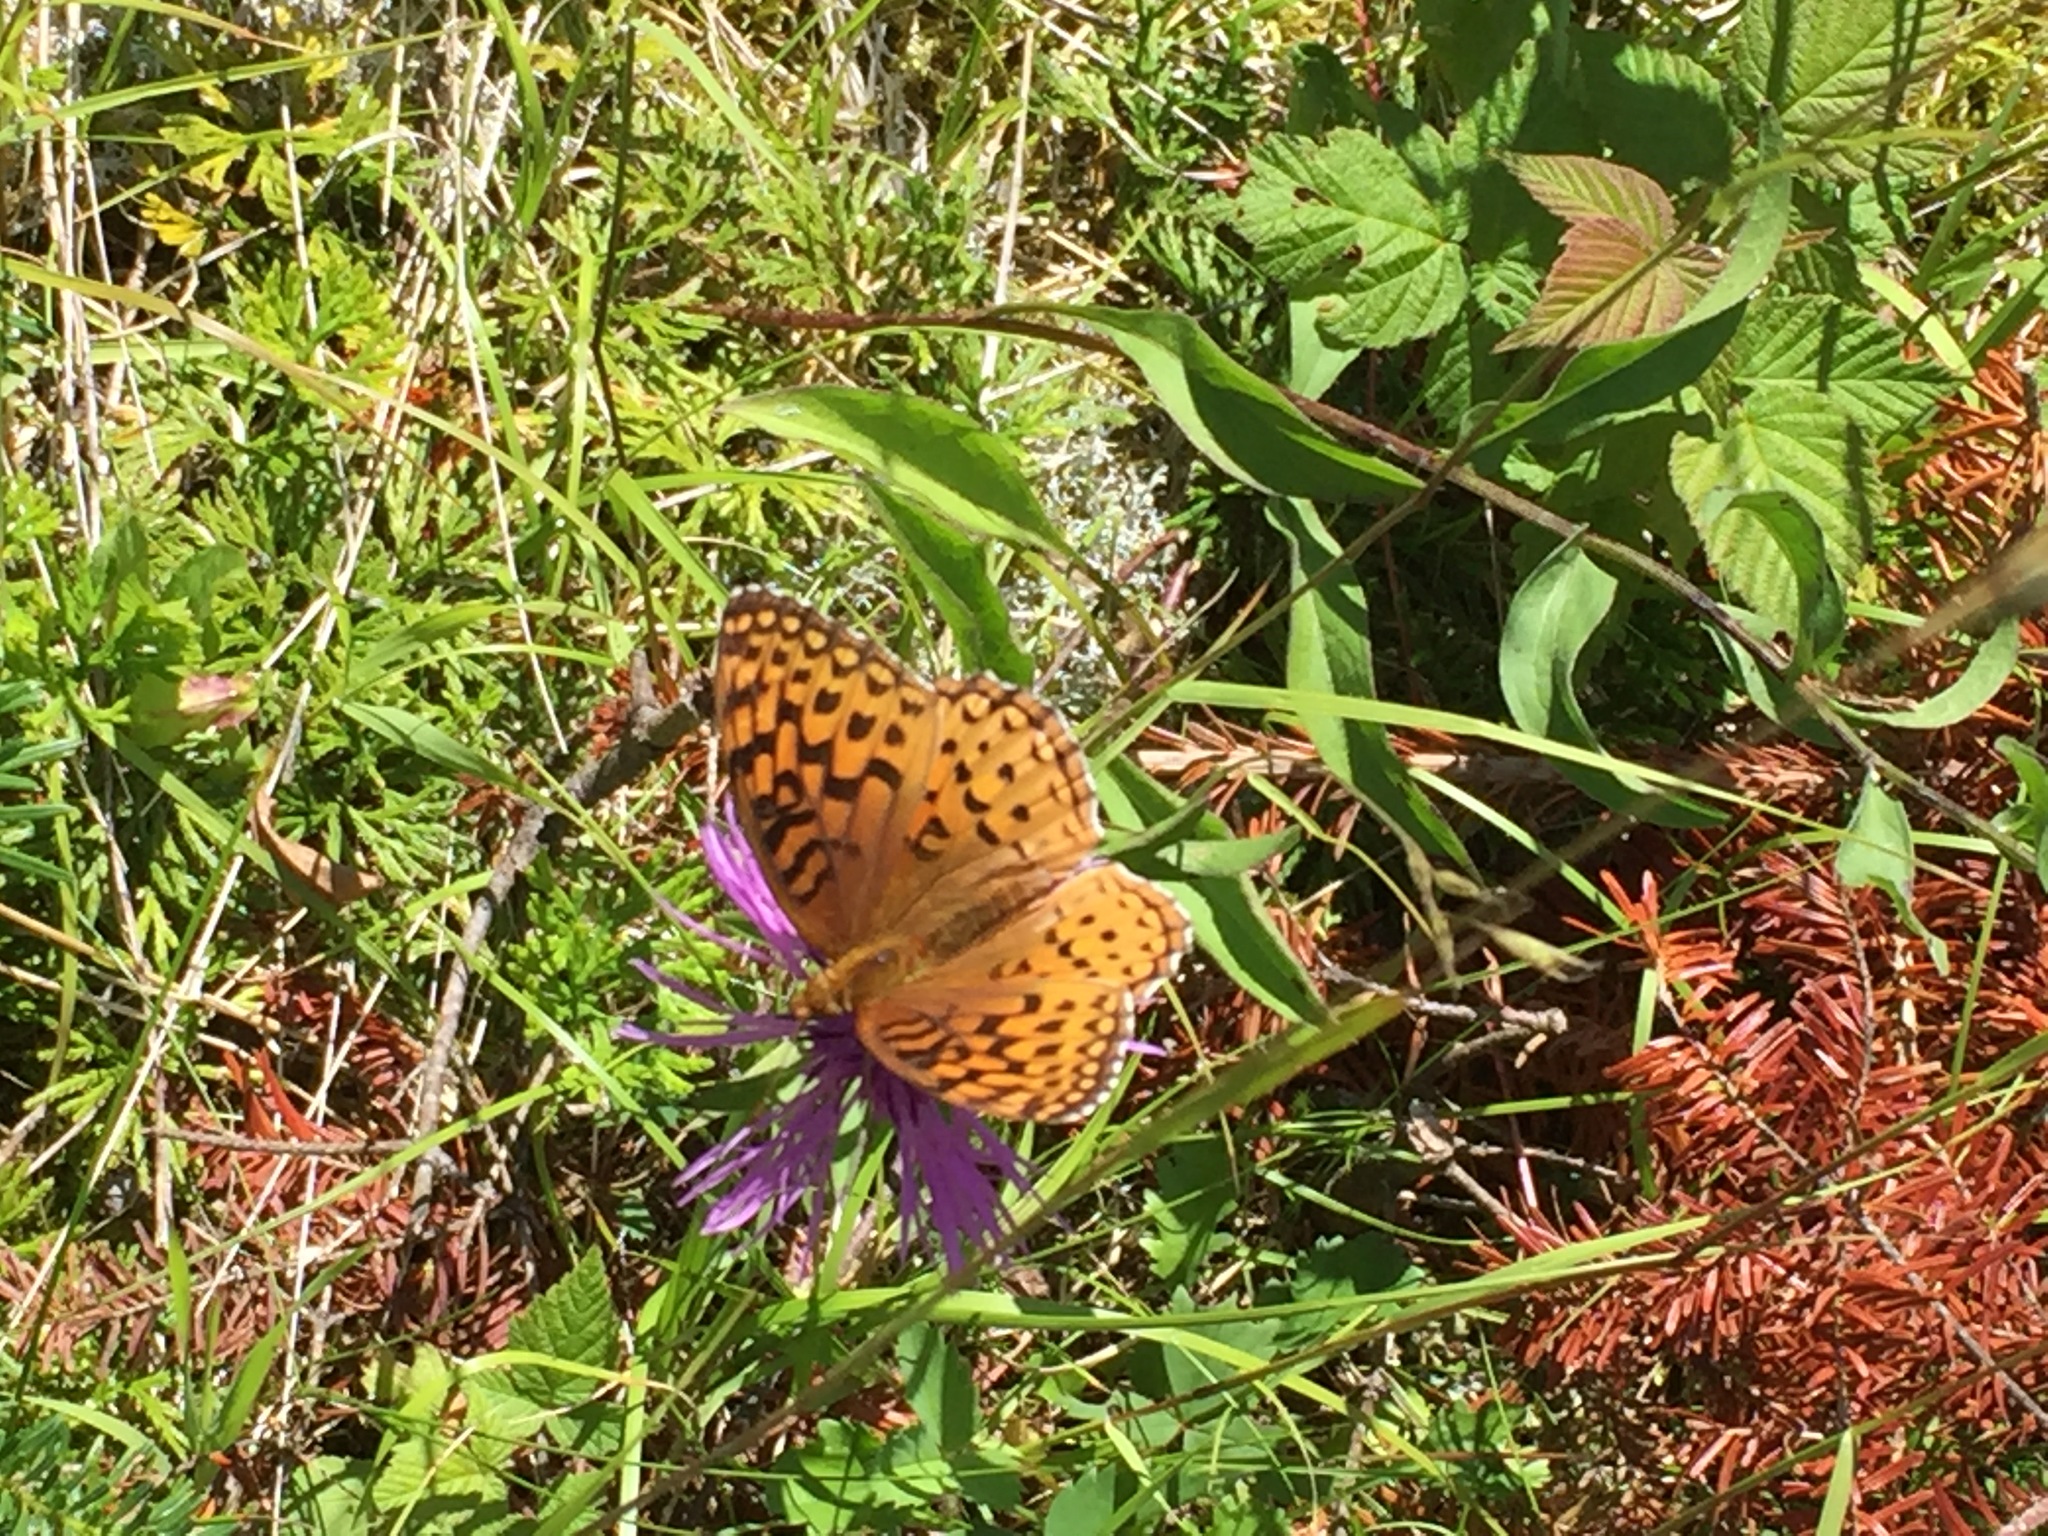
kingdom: Animalia
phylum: Arthropoda
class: Insecta
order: Lepidoptera
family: Nymphalidae
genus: Speyeria
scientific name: Speyeria aphrodite
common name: Aphrodite friitllary
